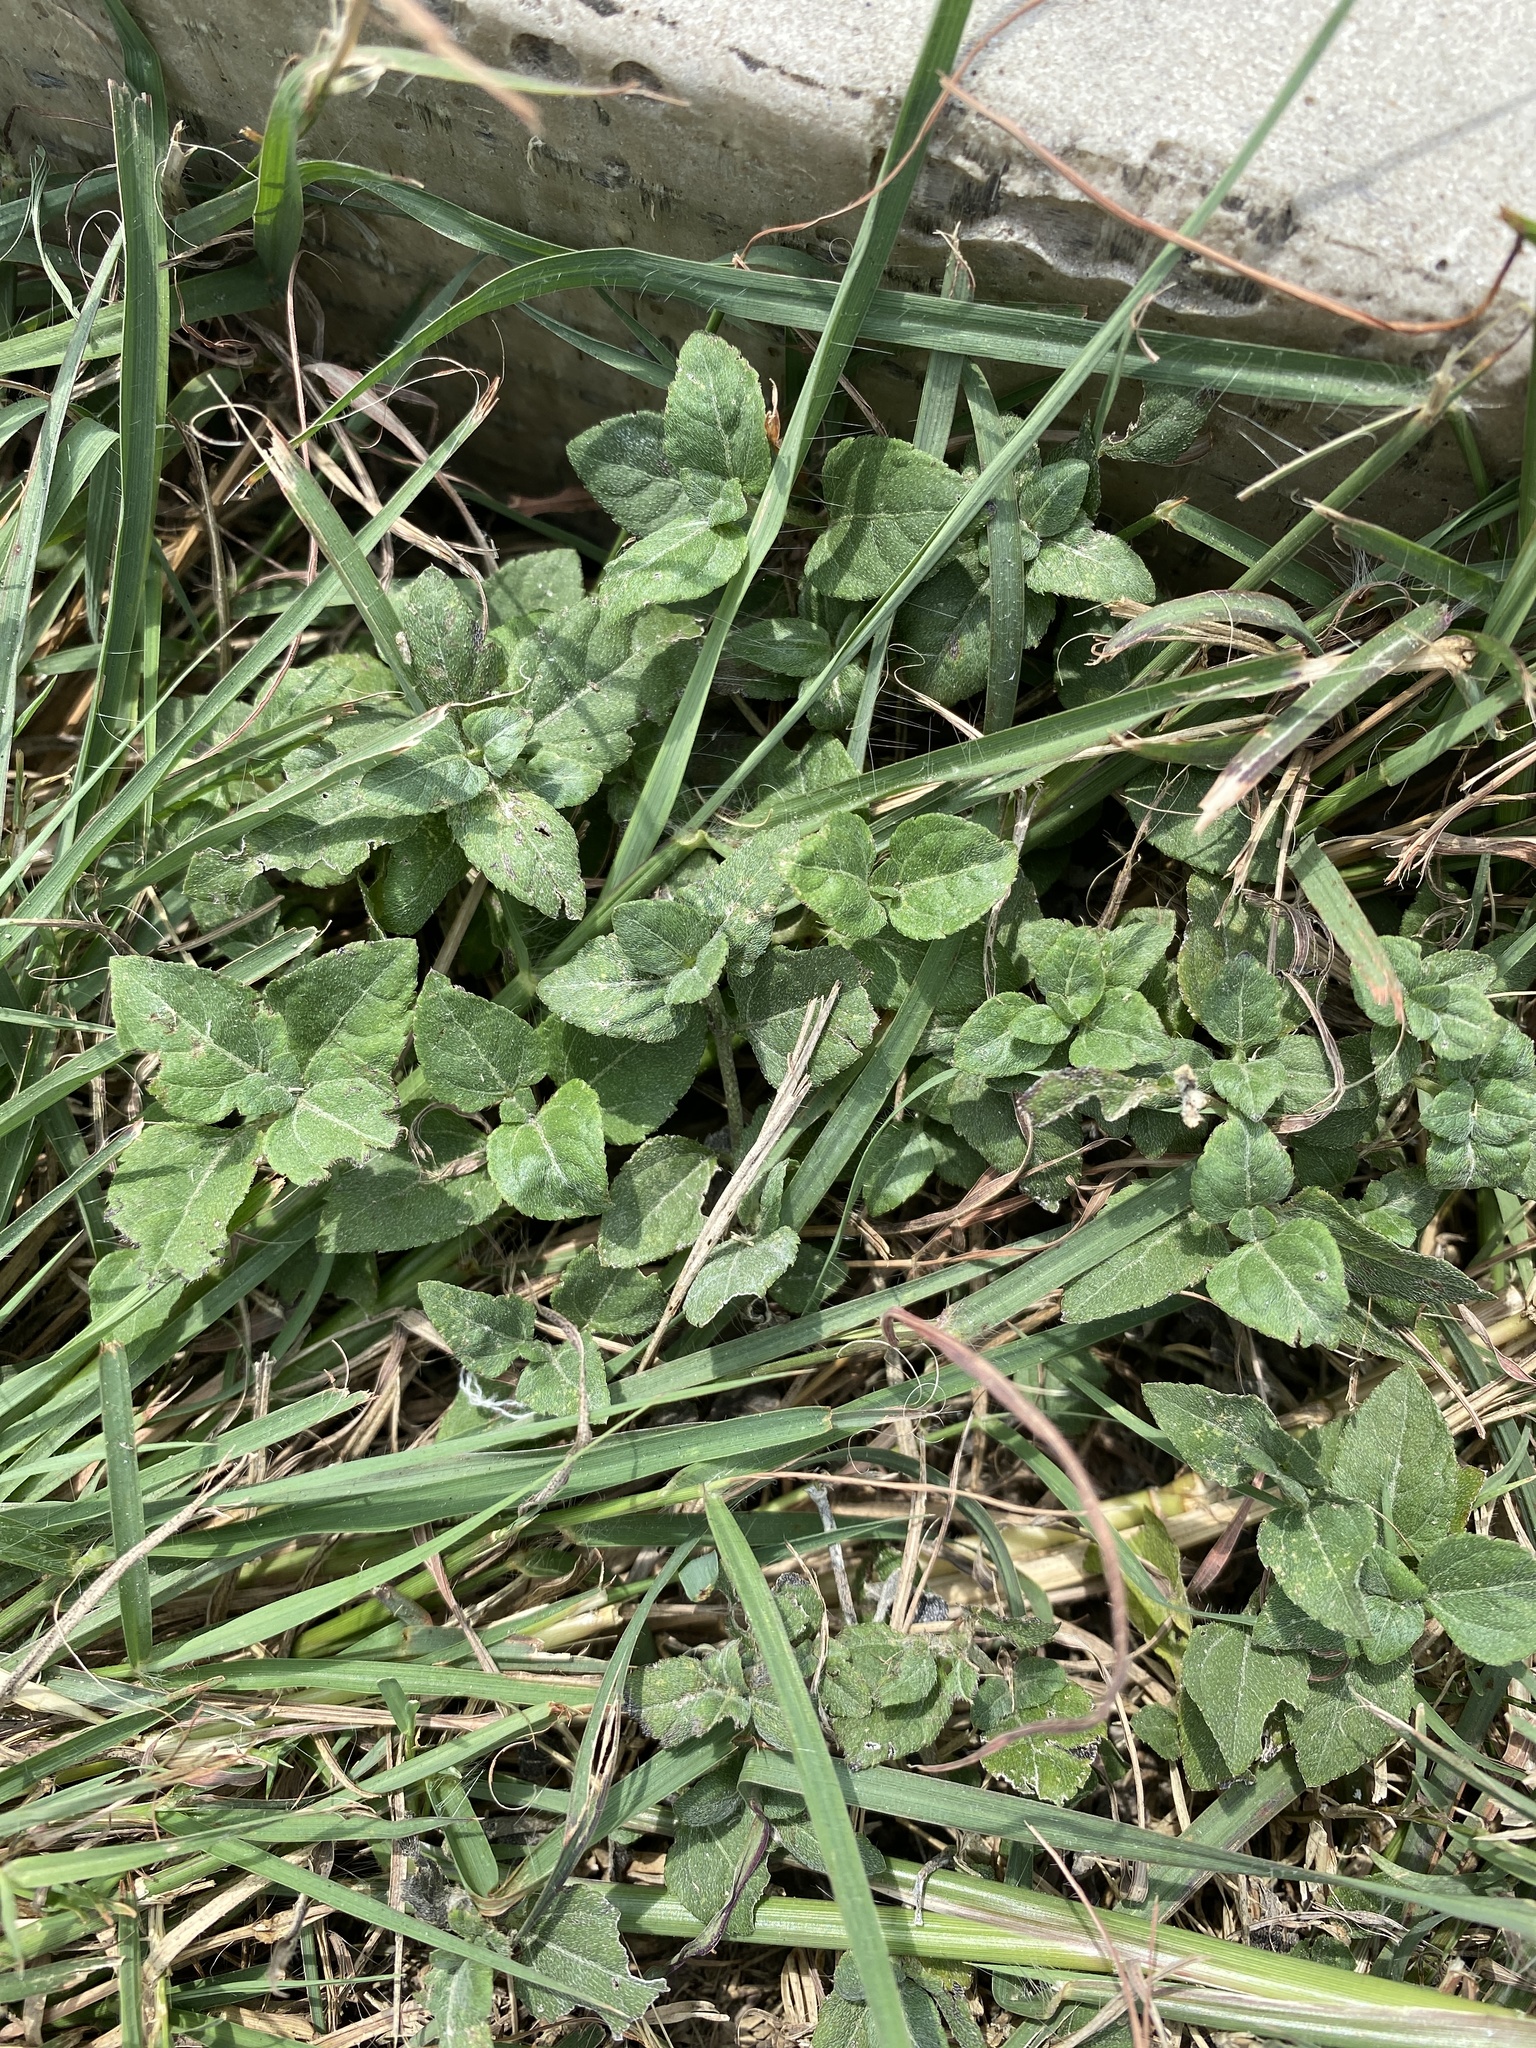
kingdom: Plantae
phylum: Tracheophyta
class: Magnoliopsida
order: Asterales
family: Asteraceae
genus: Calyptocarpus
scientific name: Calyptocarpus vialis
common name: Straggler daisy
